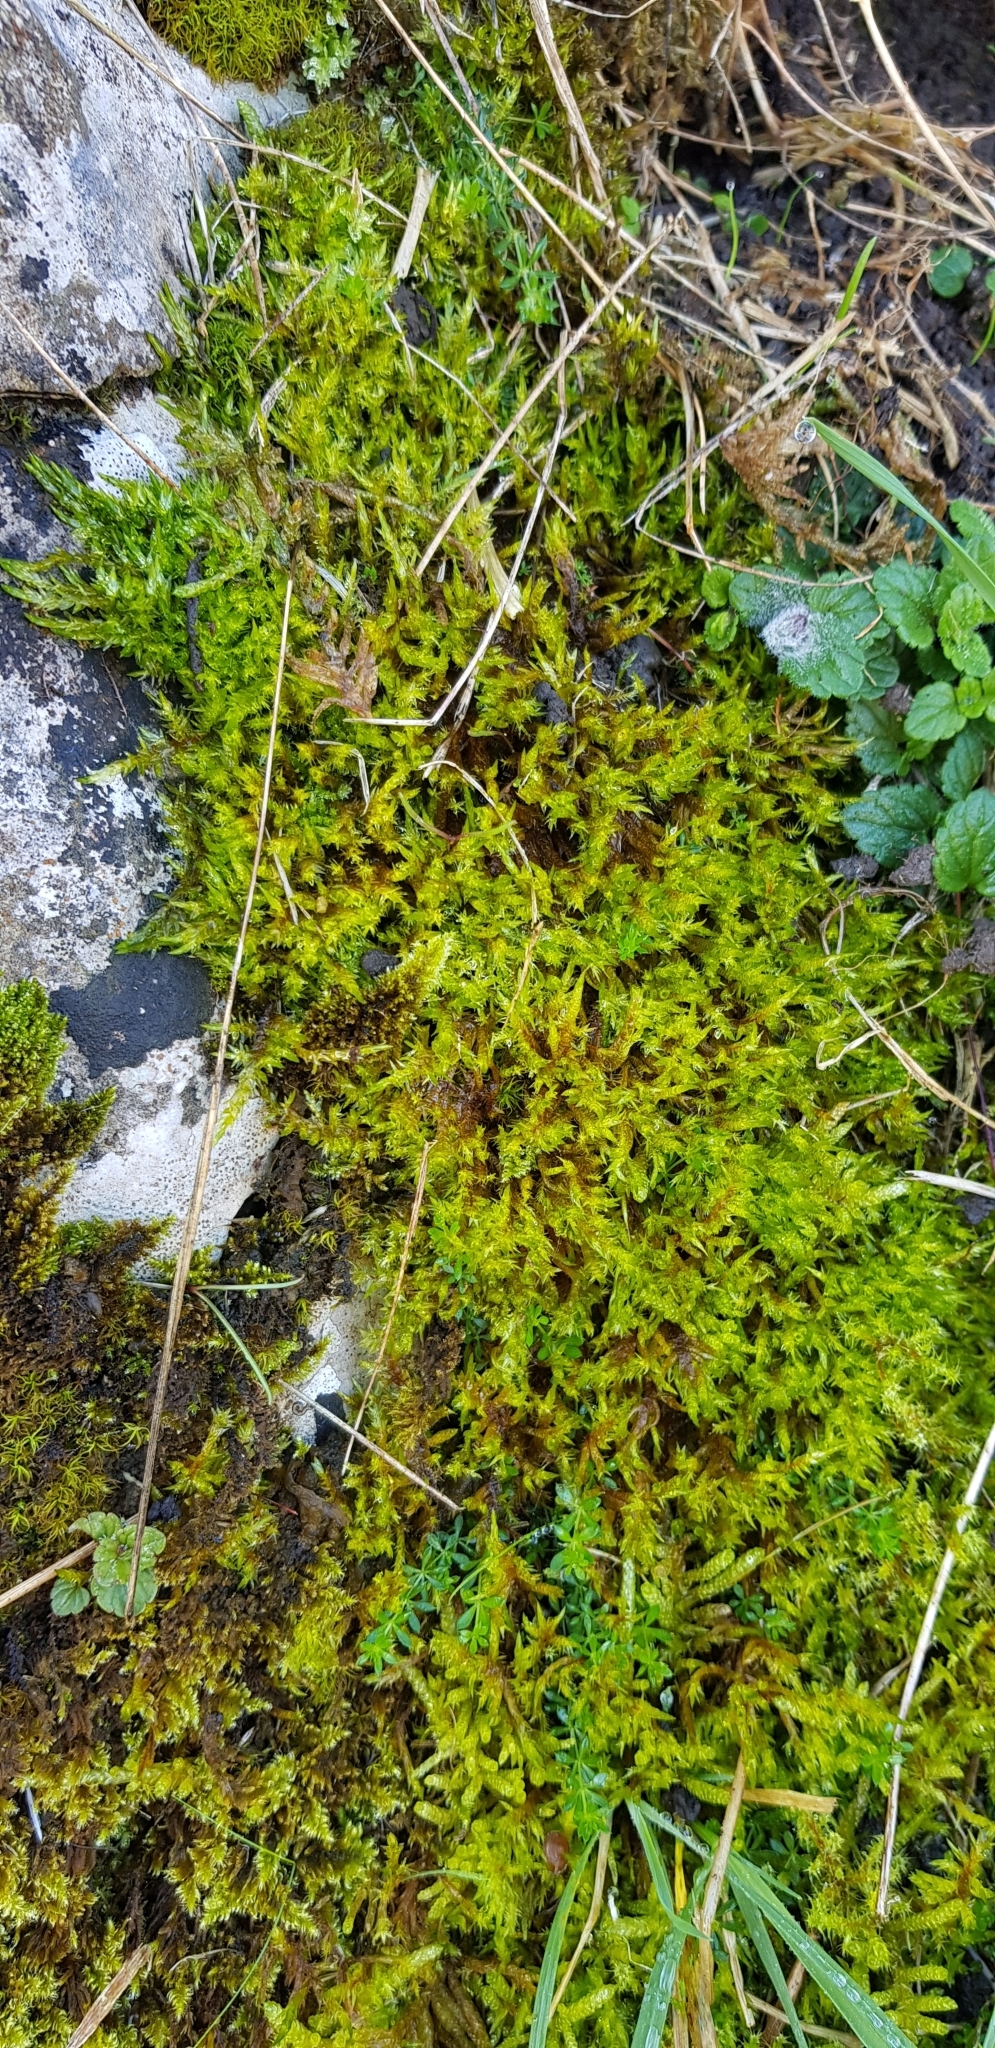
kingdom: Plantae
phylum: Bryophyta
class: Bryopsida
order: Hypnales
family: Pylaisiaceae
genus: Calliergonella
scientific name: Calliergonella cuspidata
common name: Common large wetland moss
